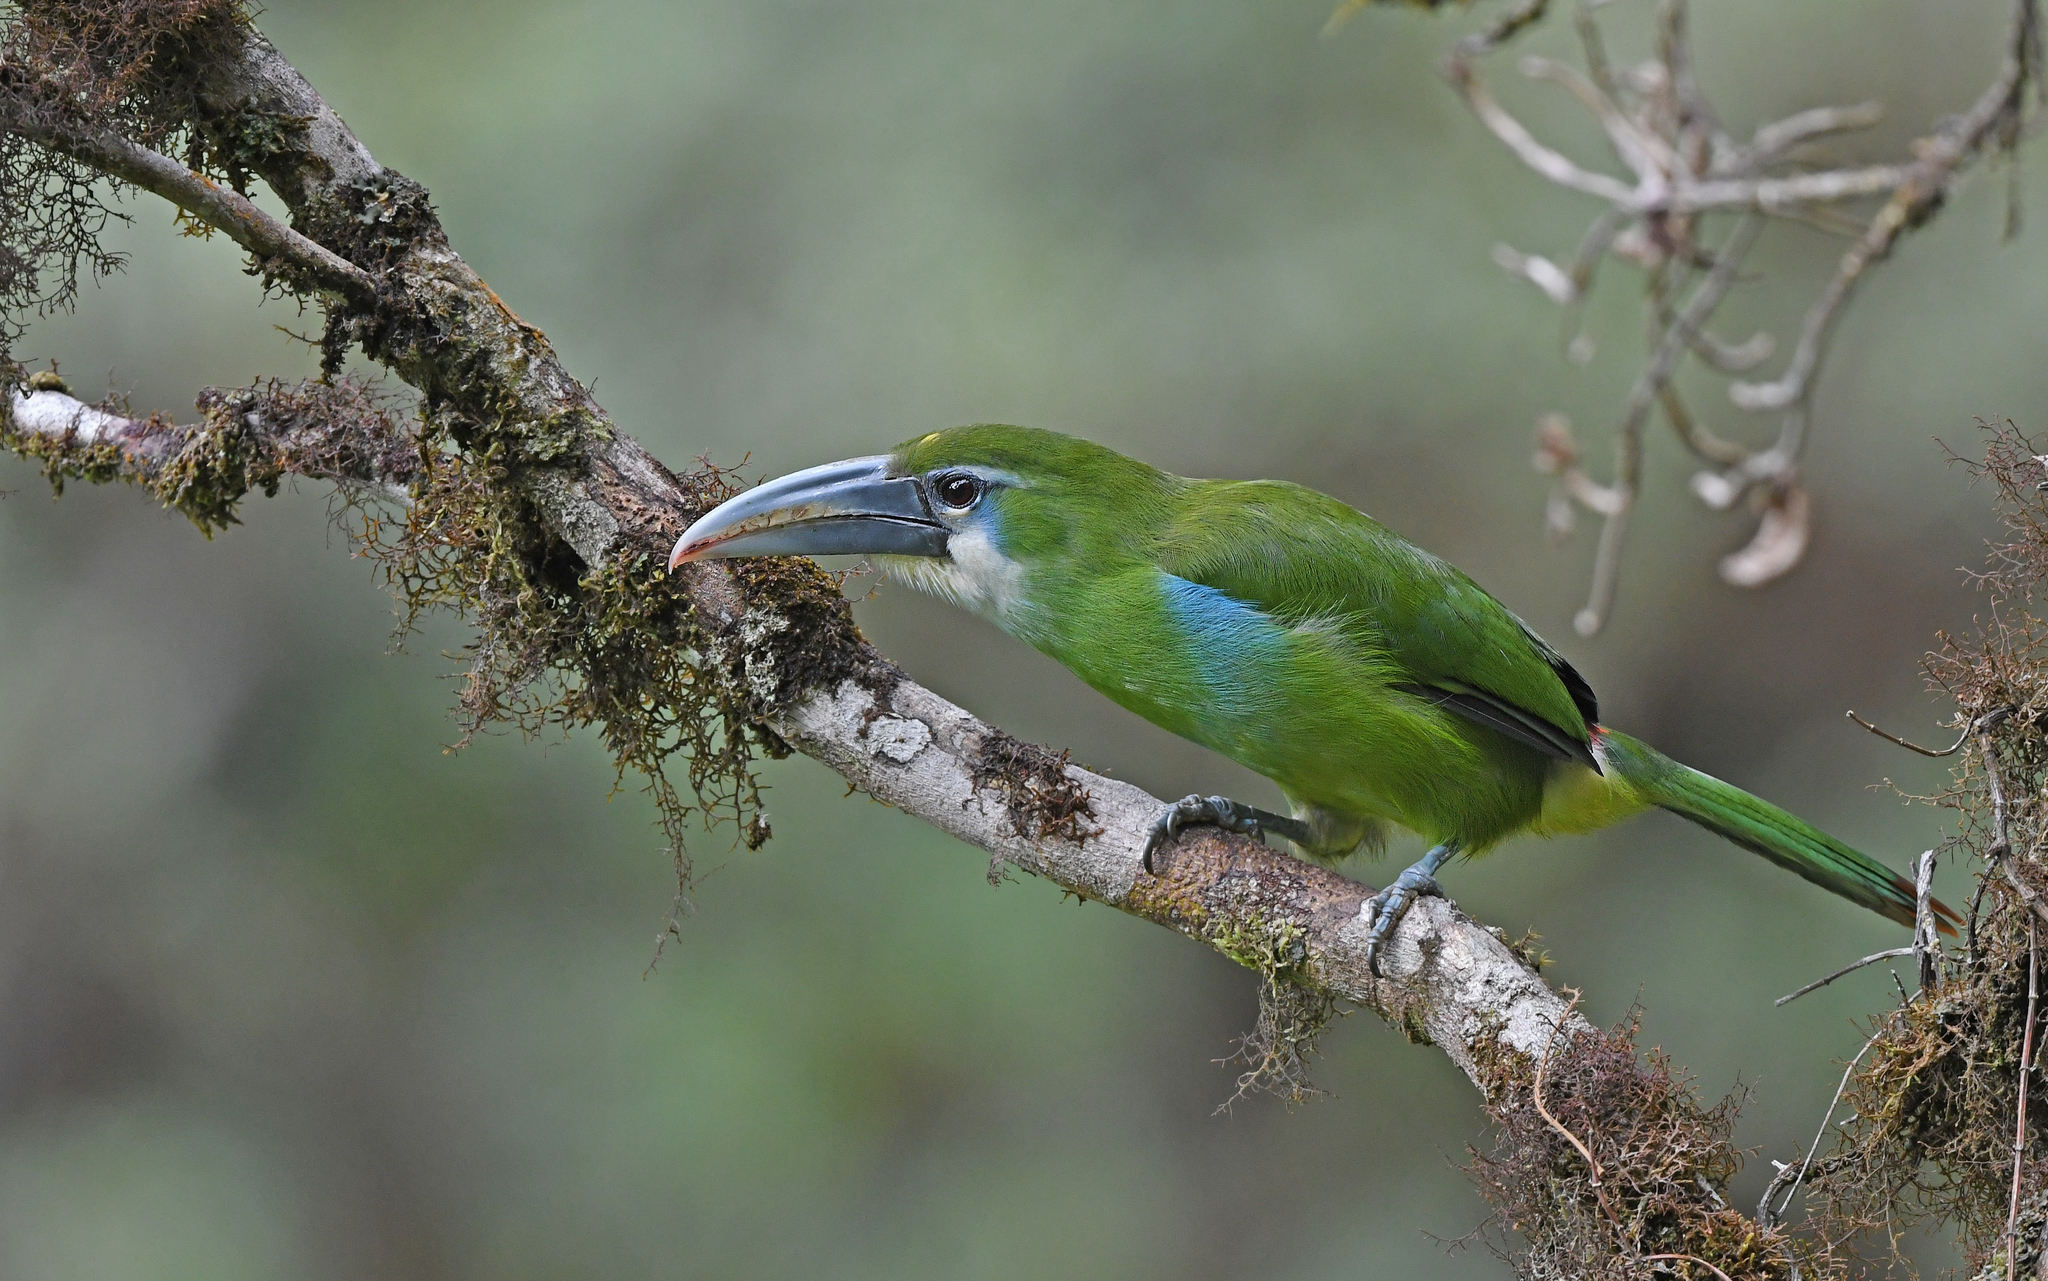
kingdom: Animalia
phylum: Chordata
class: Aves
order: Piciformes
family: Ramphastidae
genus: Aulacorhynchus
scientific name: Aulacorhynchus coeruleicinctis
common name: Blue-banded toucanet
